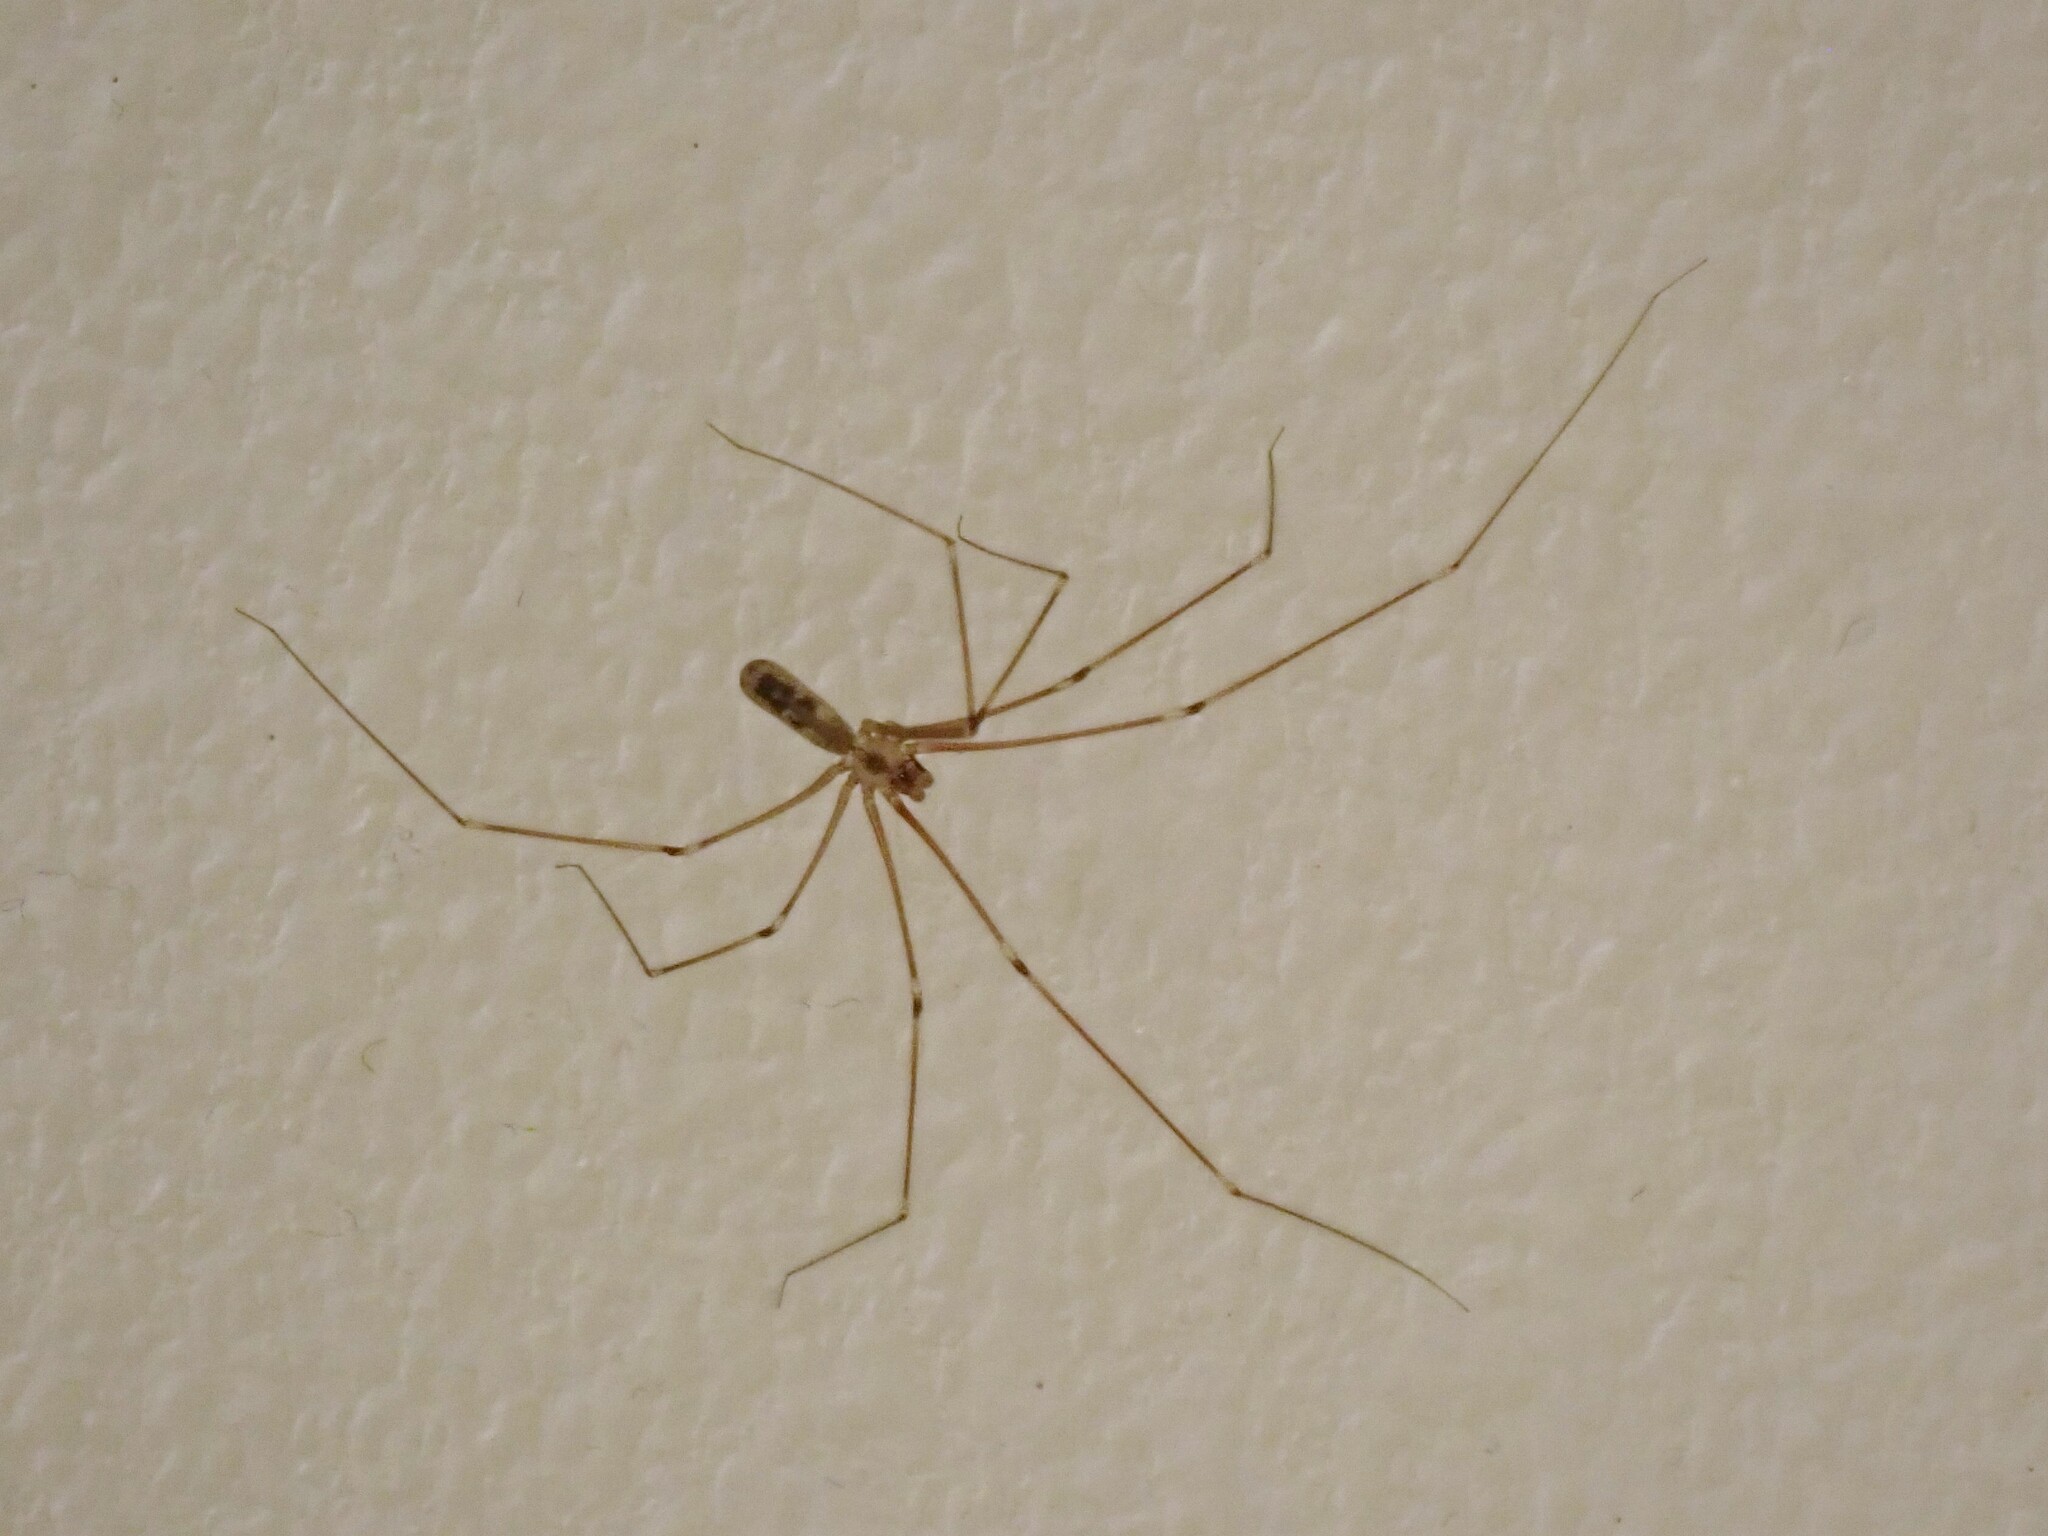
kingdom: Animalia
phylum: Arthropoda
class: Arachnida
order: Araneae
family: Pholcidae
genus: Pholcus
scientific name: Pholcus phalangioides
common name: Longbodied cellar spider
